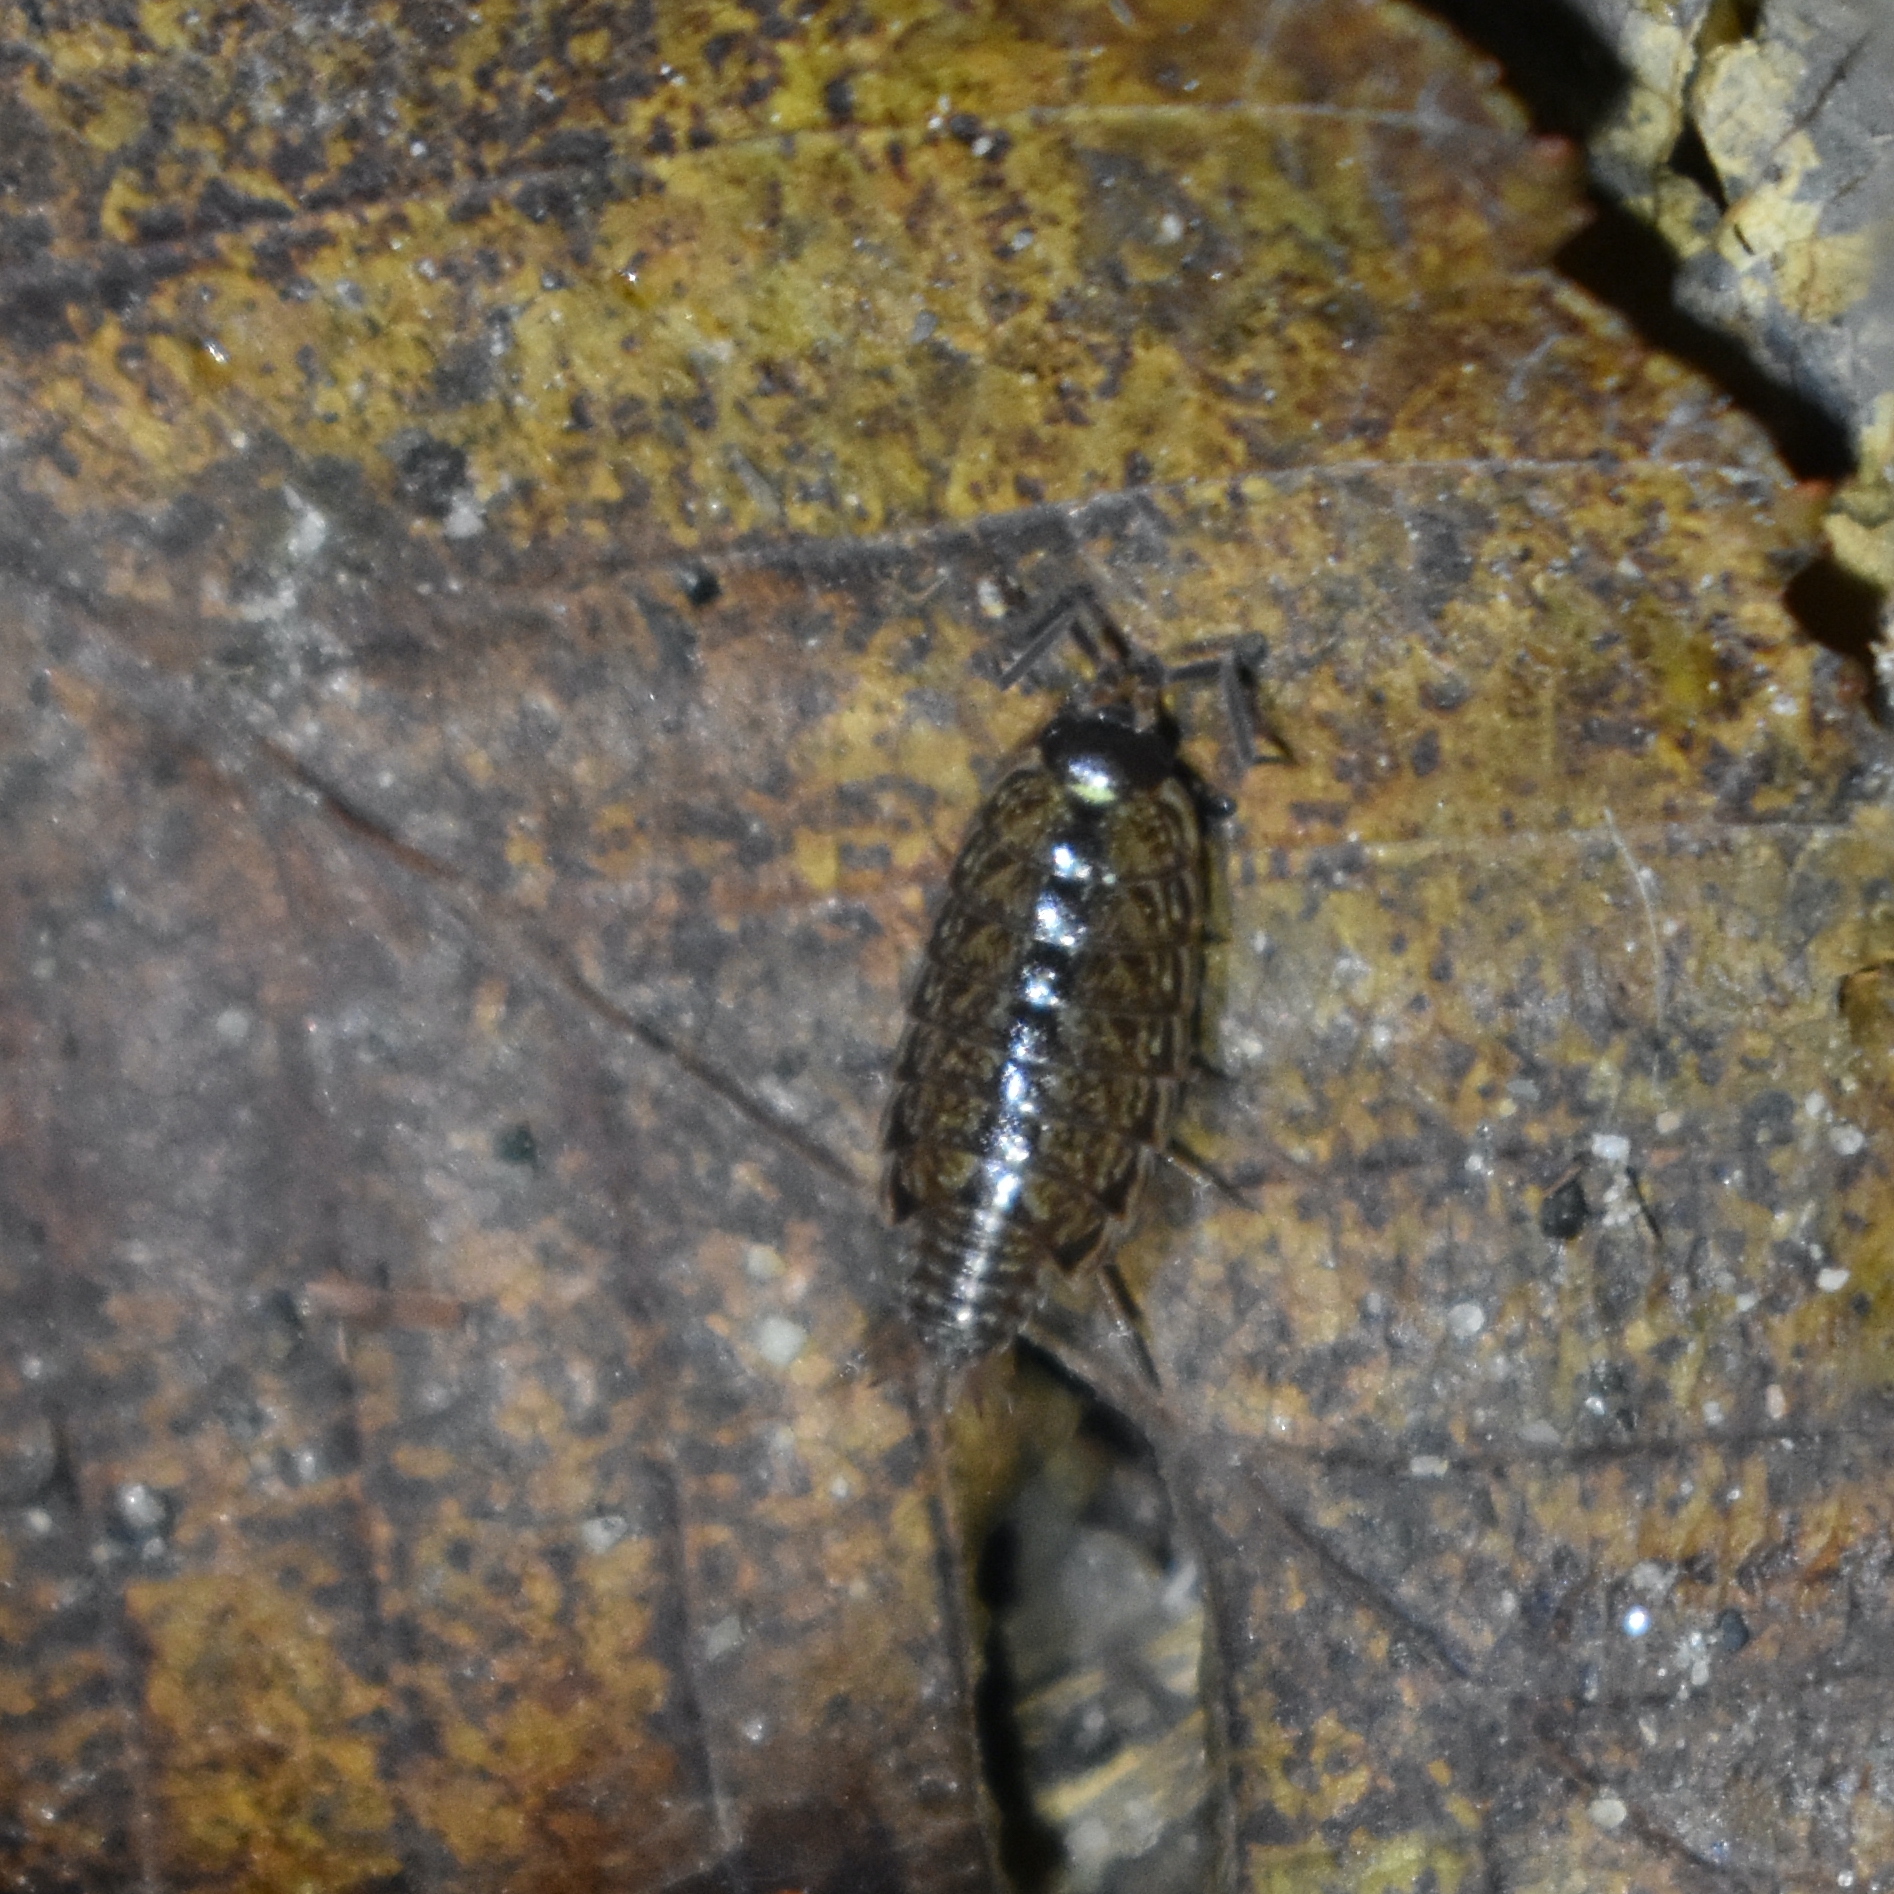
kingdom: Animalia
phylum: Arthropoda
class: Malacostraca
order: Isopoda
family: Philosciidae
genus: Philoscia
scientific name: Philoscia muscorum
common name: Common striped woodlouse
